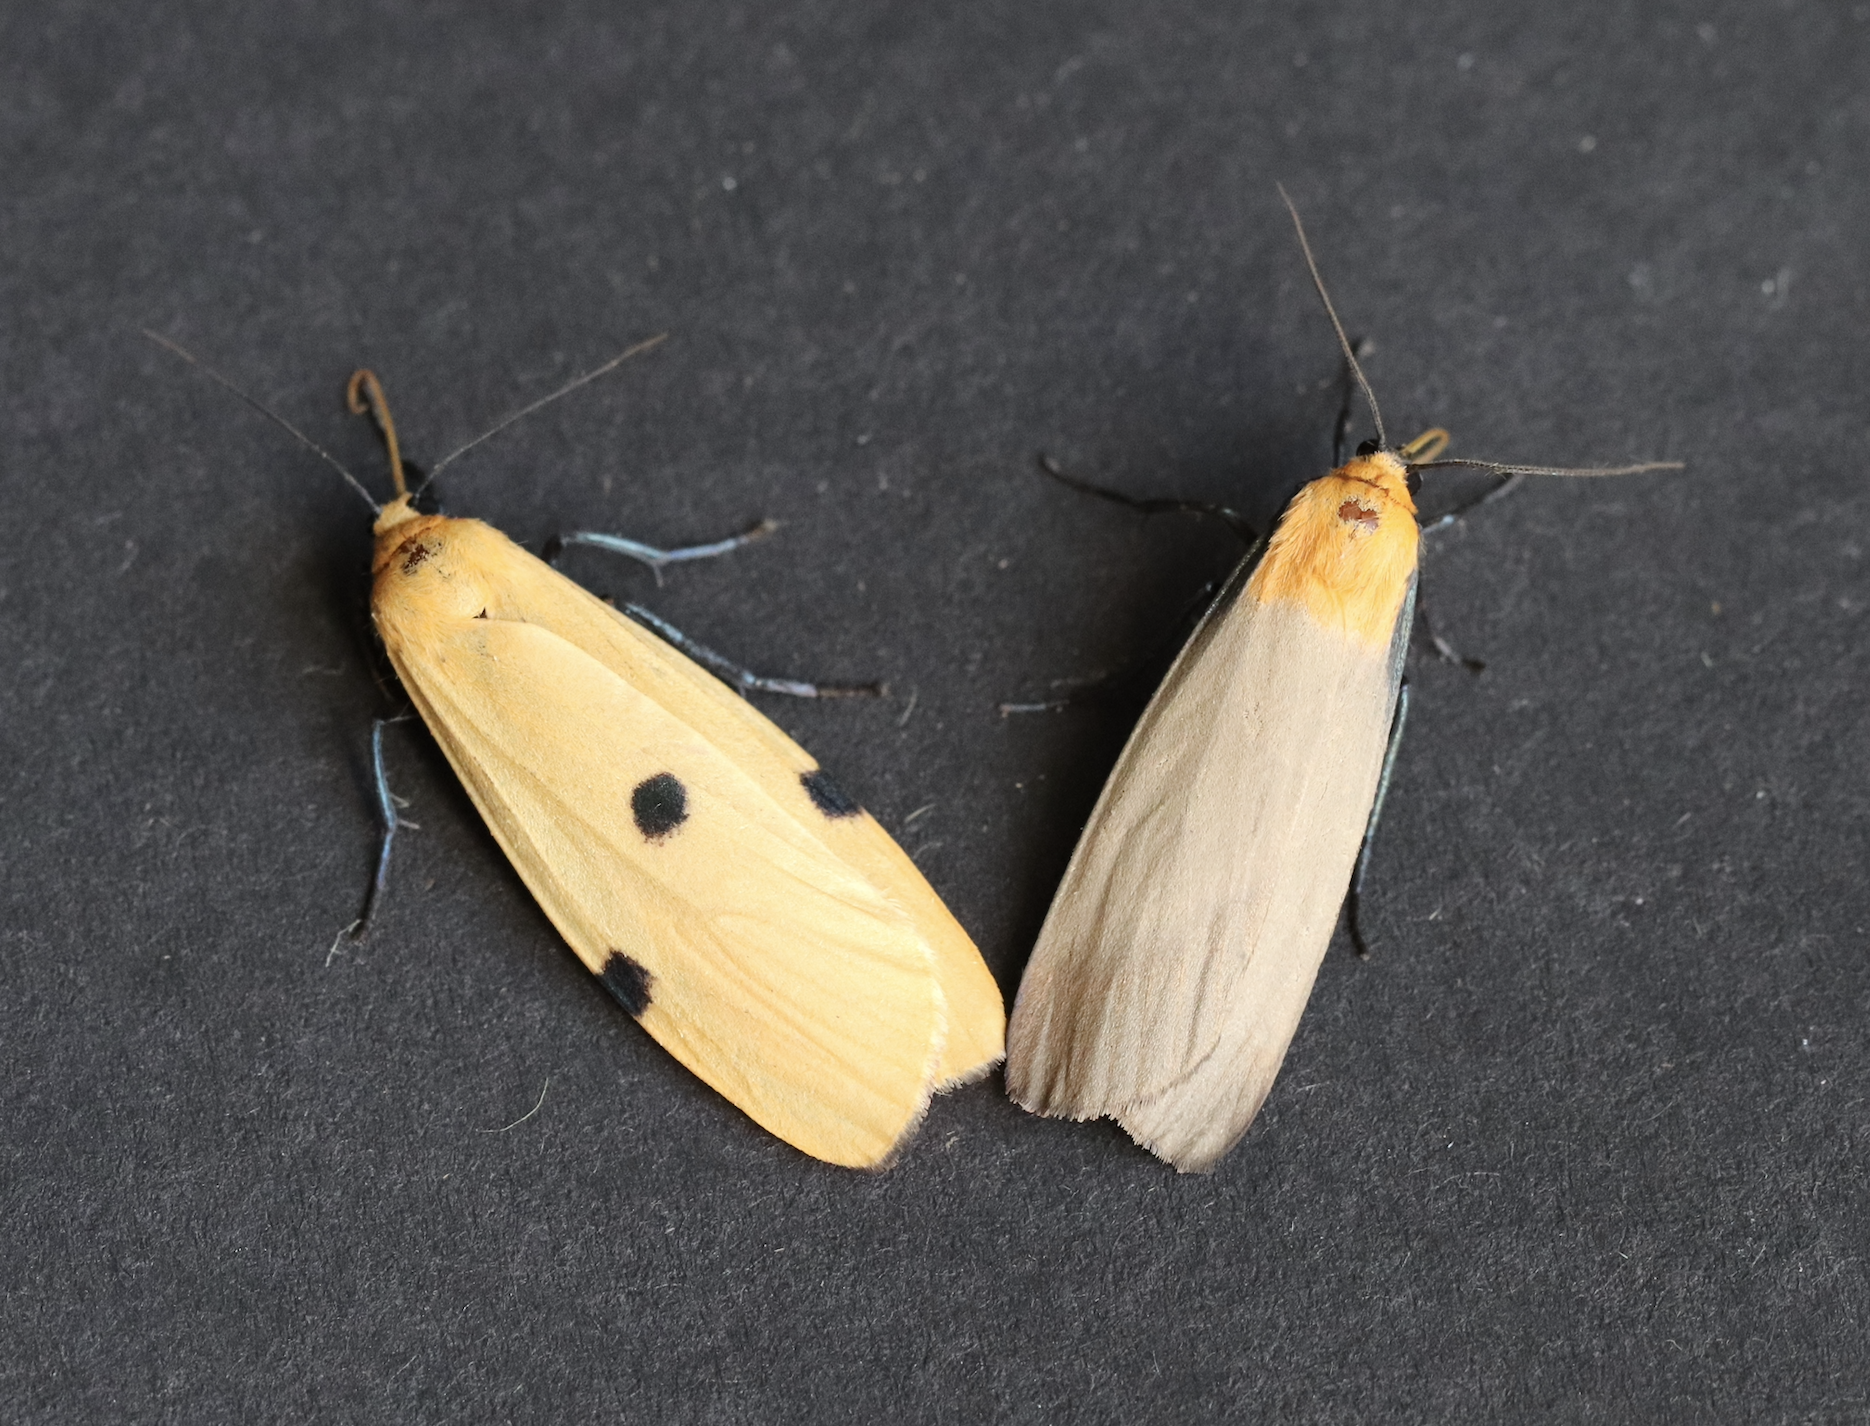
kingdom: Animalia
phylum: Arthropoda
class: Insecta
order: Lepidoptera
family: Erebidae
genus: Lithosia
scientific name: Lithosia quadra
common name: Four-spotted footman
